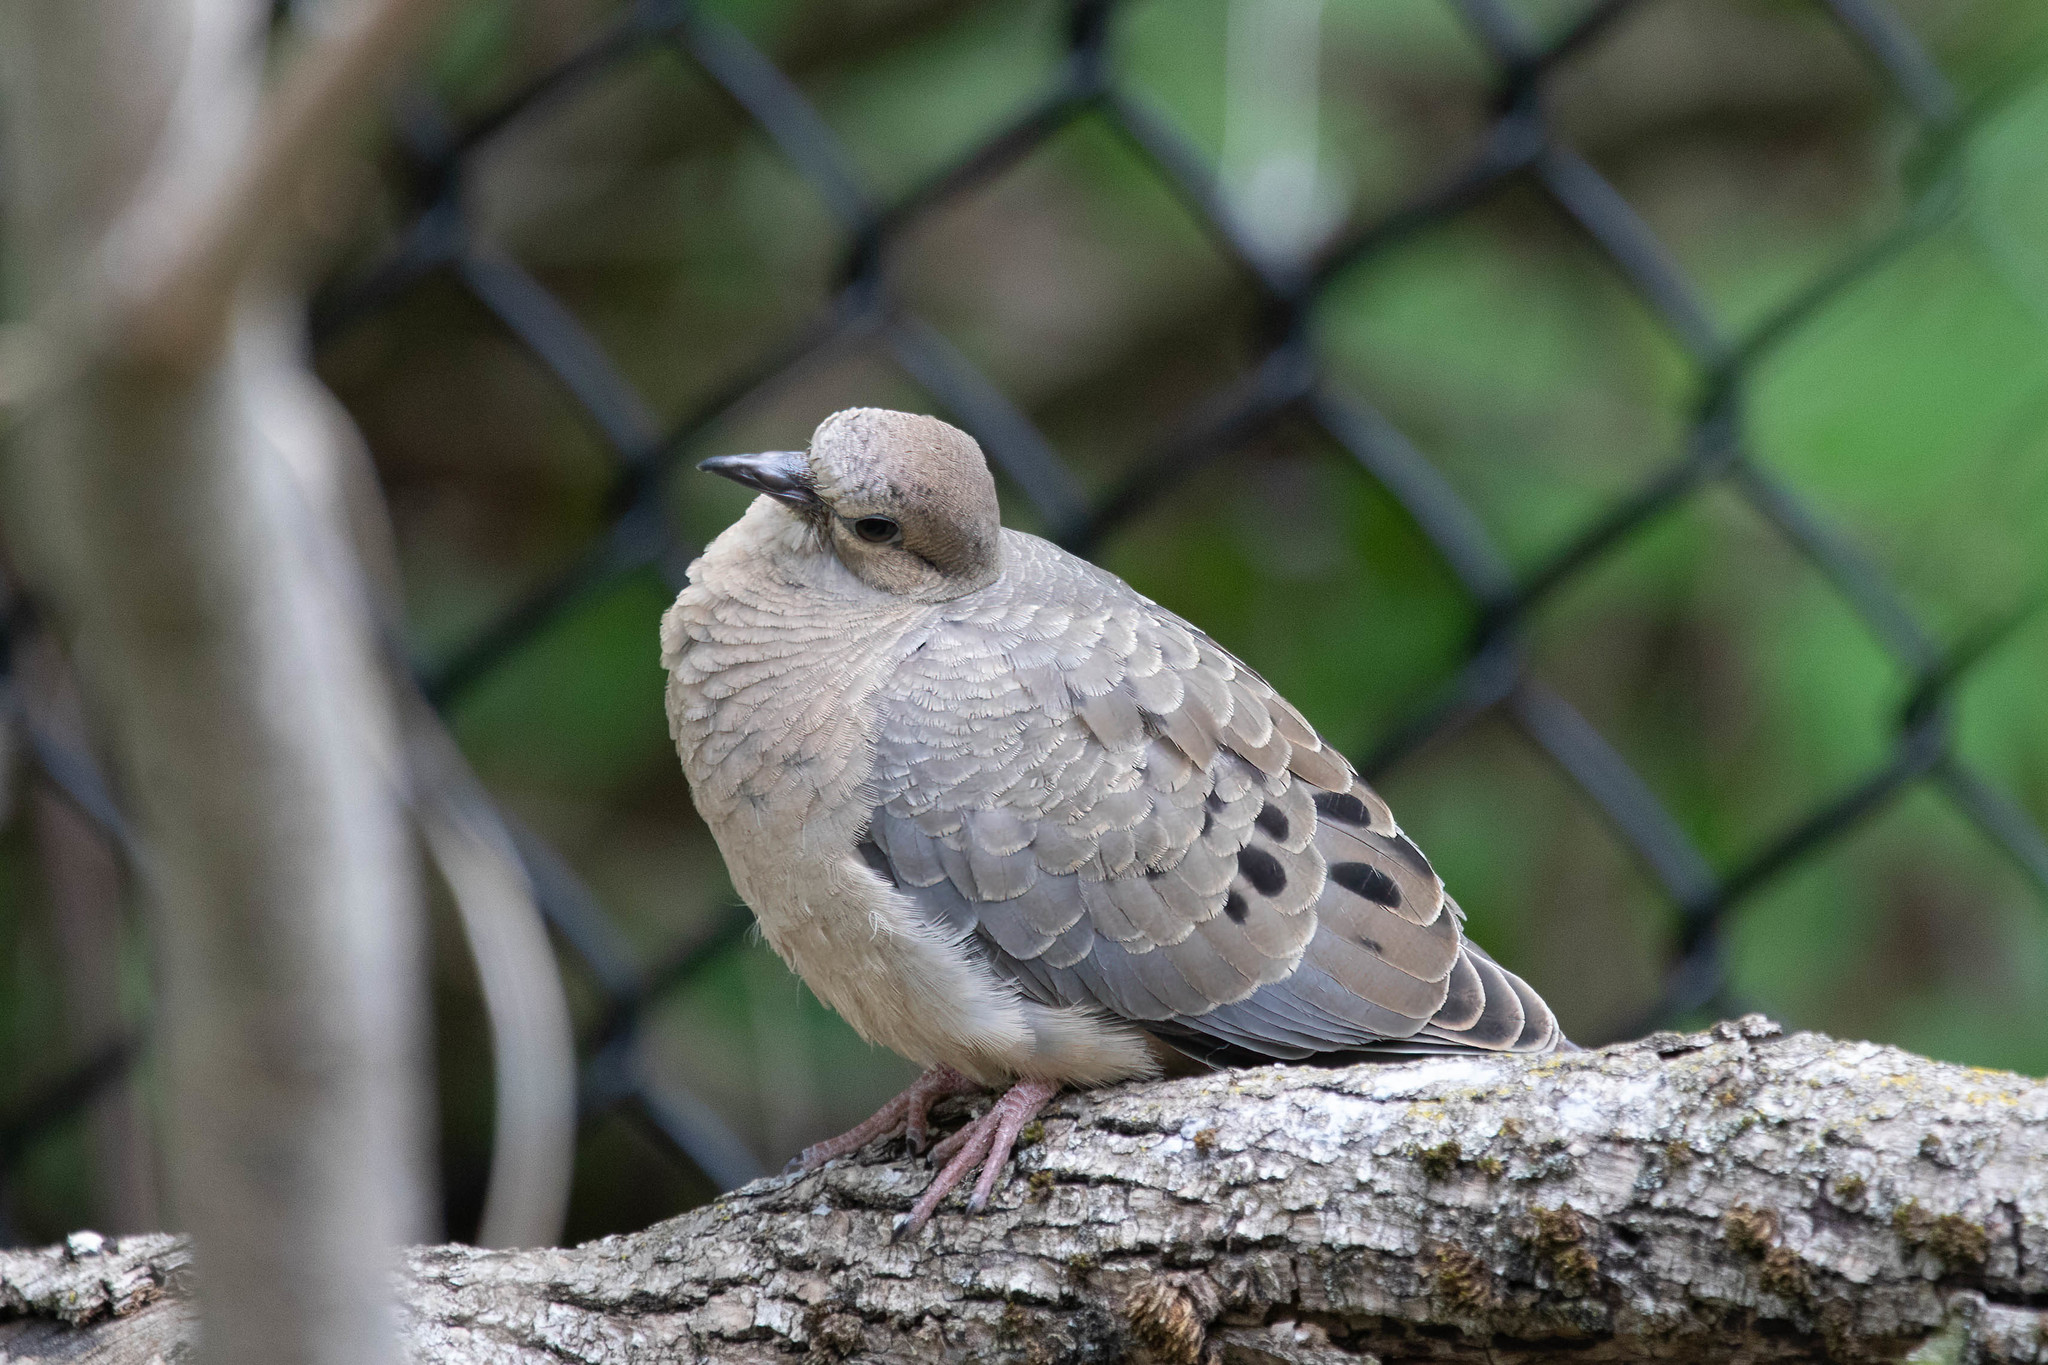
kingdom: Animalia
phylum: Chordata
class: Aves
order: Columbiformes
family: Columbidae
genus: Zenaida
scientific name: Zenaida macroura
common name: Mourning dove
